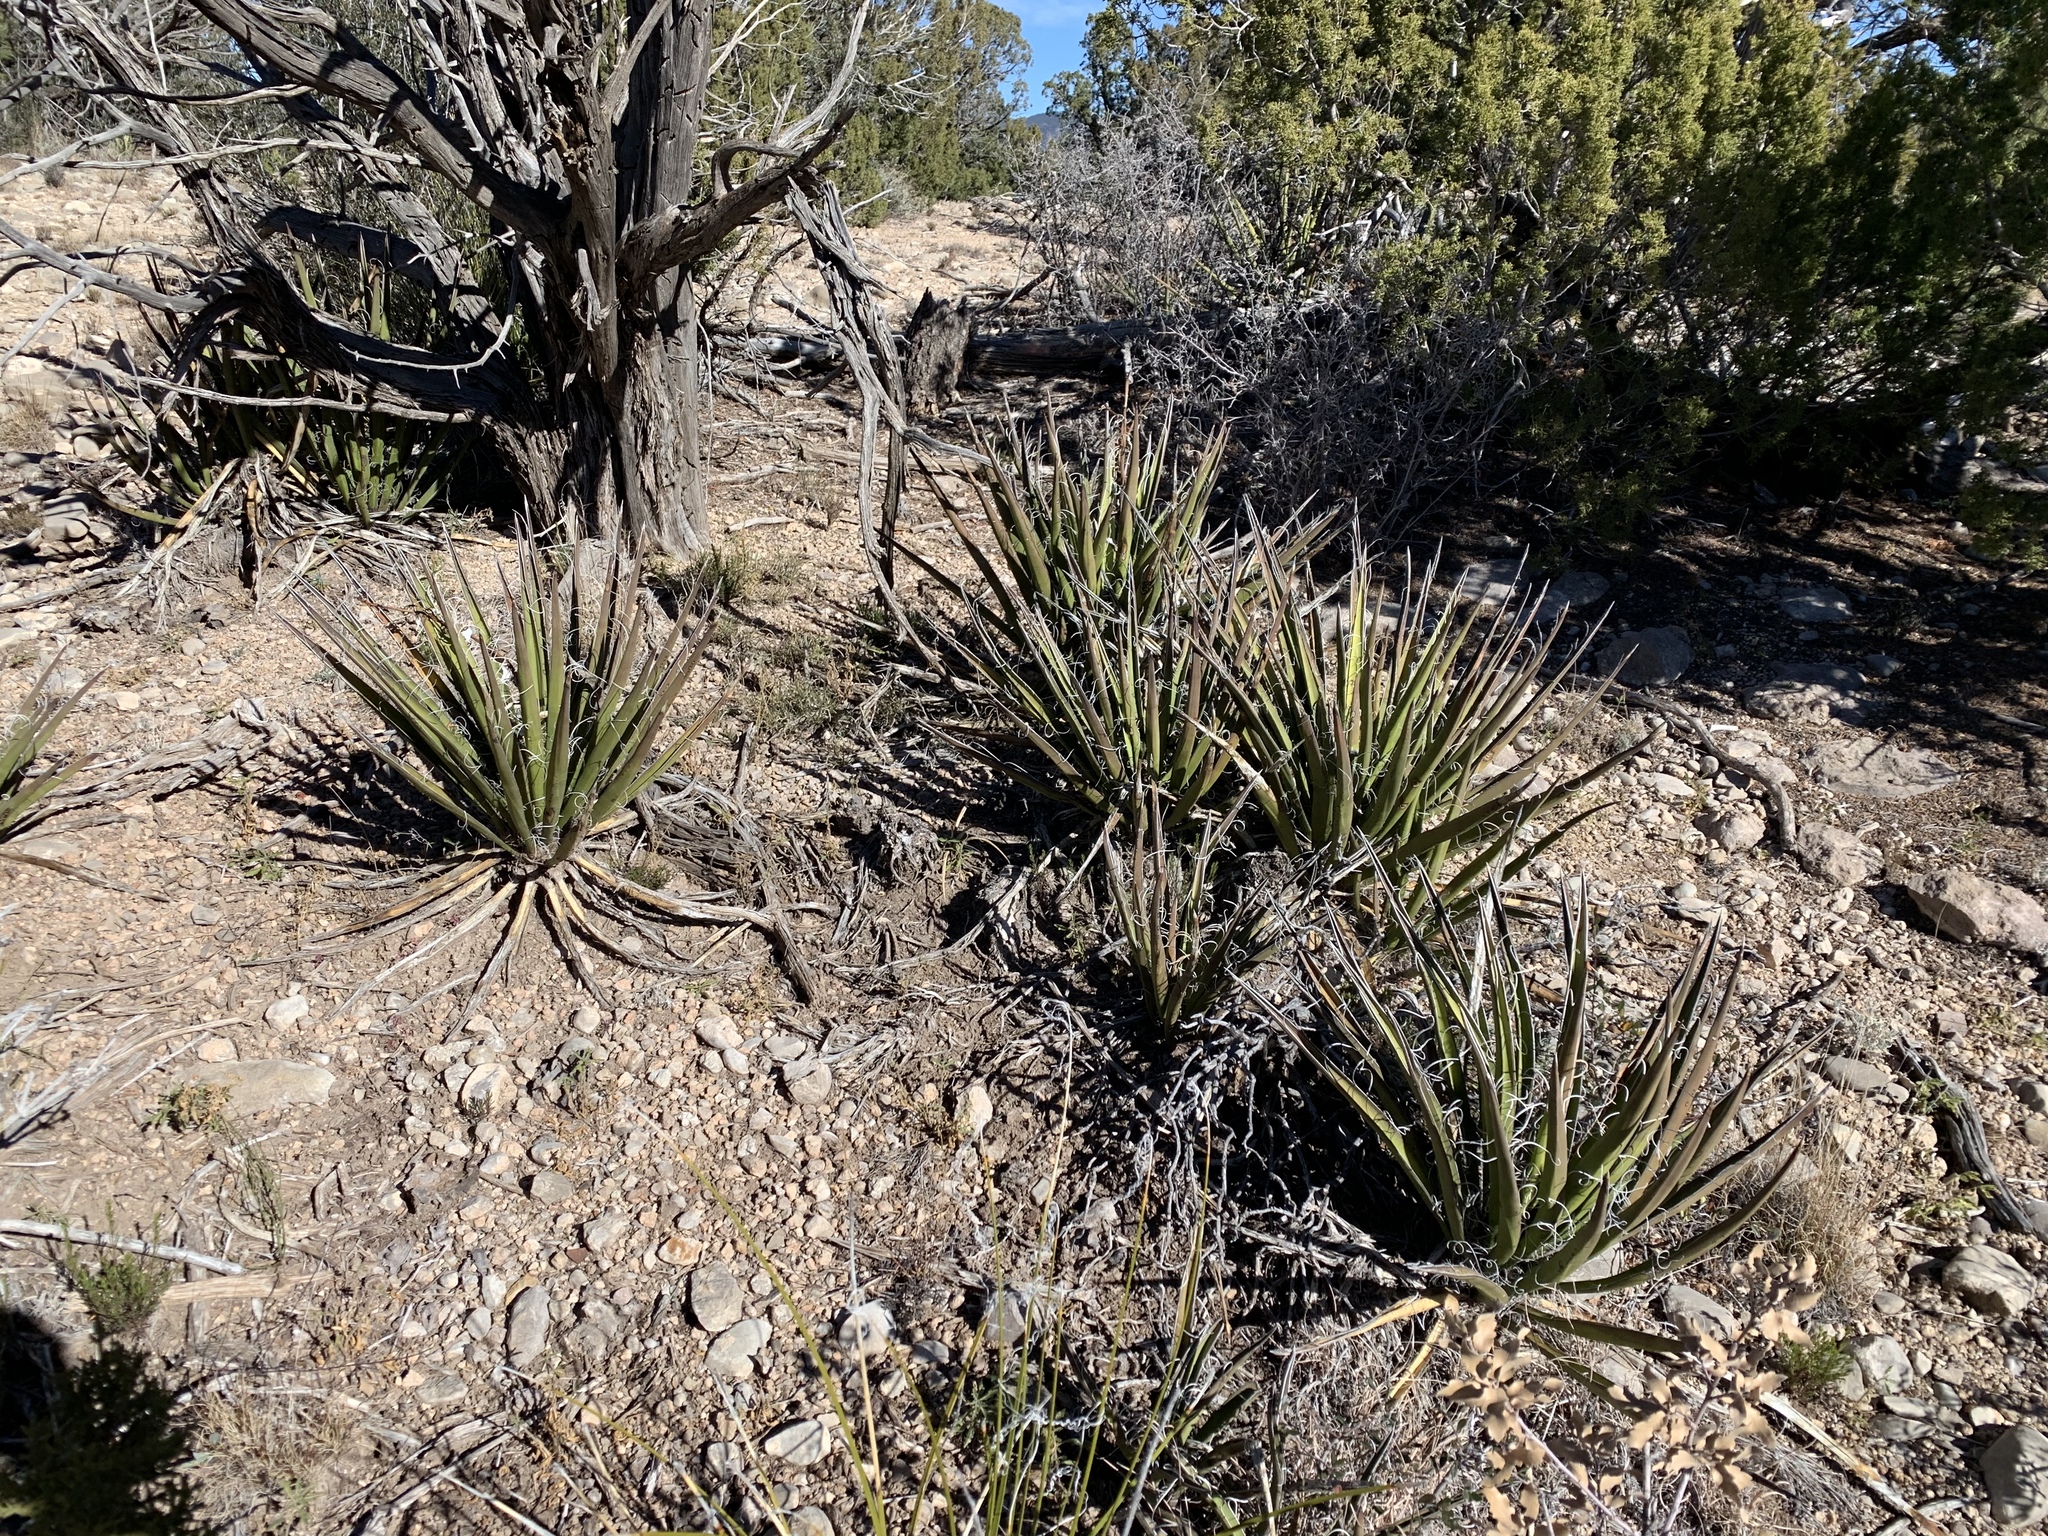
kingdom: Plantae
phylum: Tracheophyta
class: Liliopsida
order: Asparagales
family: Asparagaceae
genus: Yucca
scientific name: Yucca baccata
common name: Banana yucca
